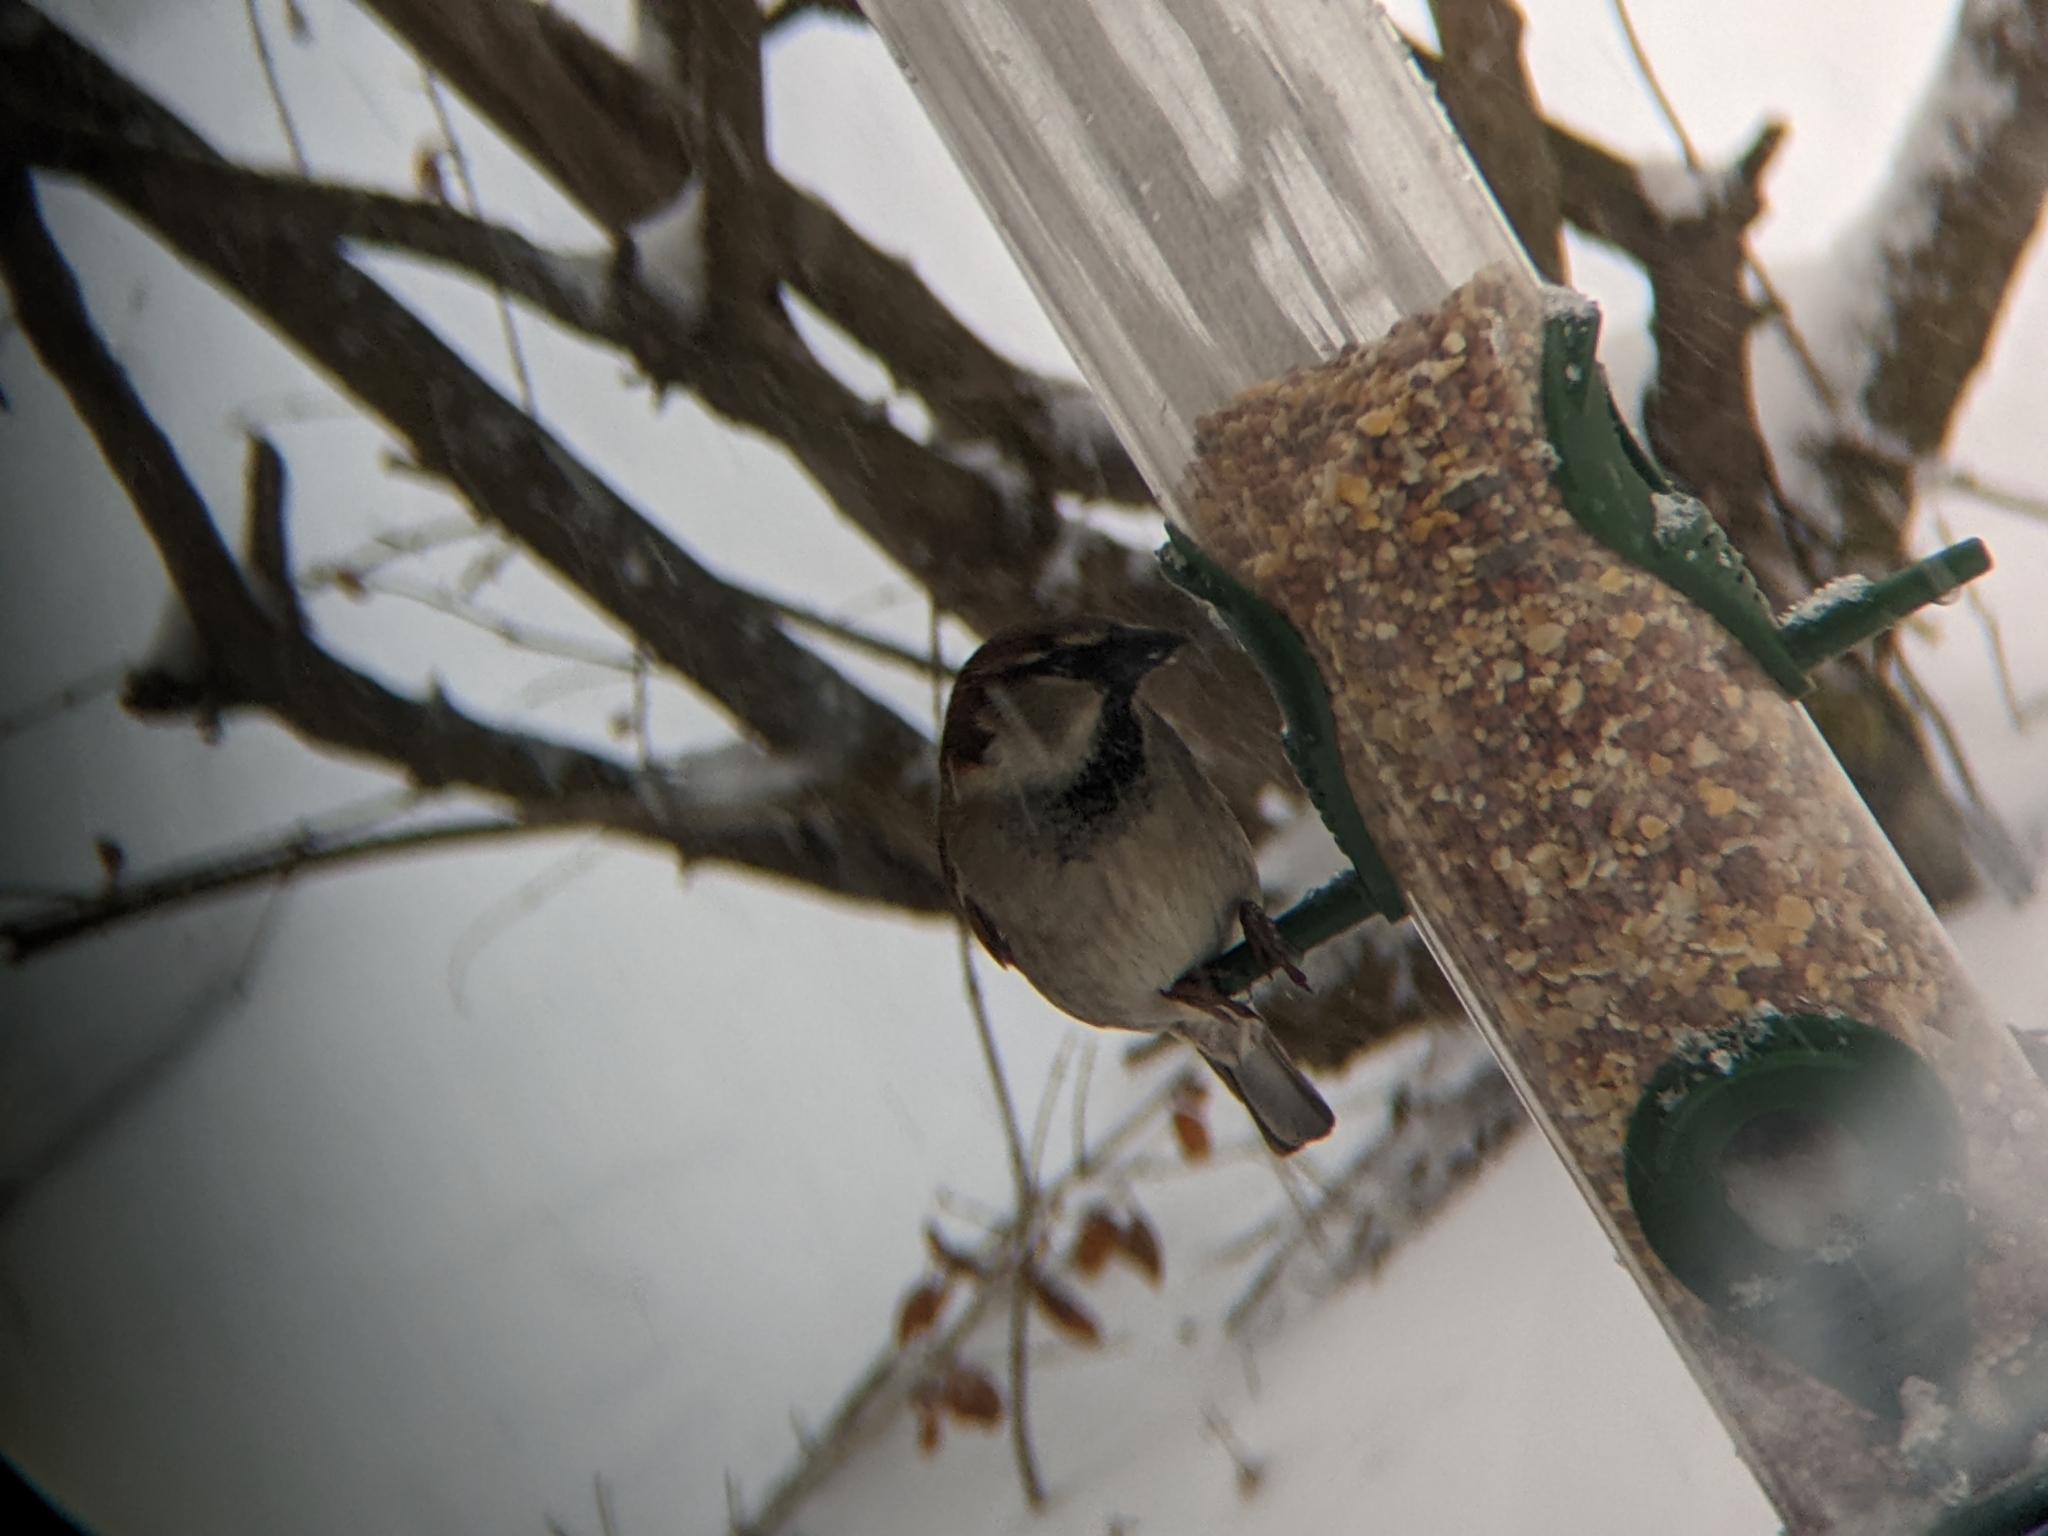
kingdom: Animalia
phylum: Chordata
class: Aves
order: Passeriformes
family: Passeridae
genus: Passer
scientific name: Passer domesticus
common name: House sparrow
